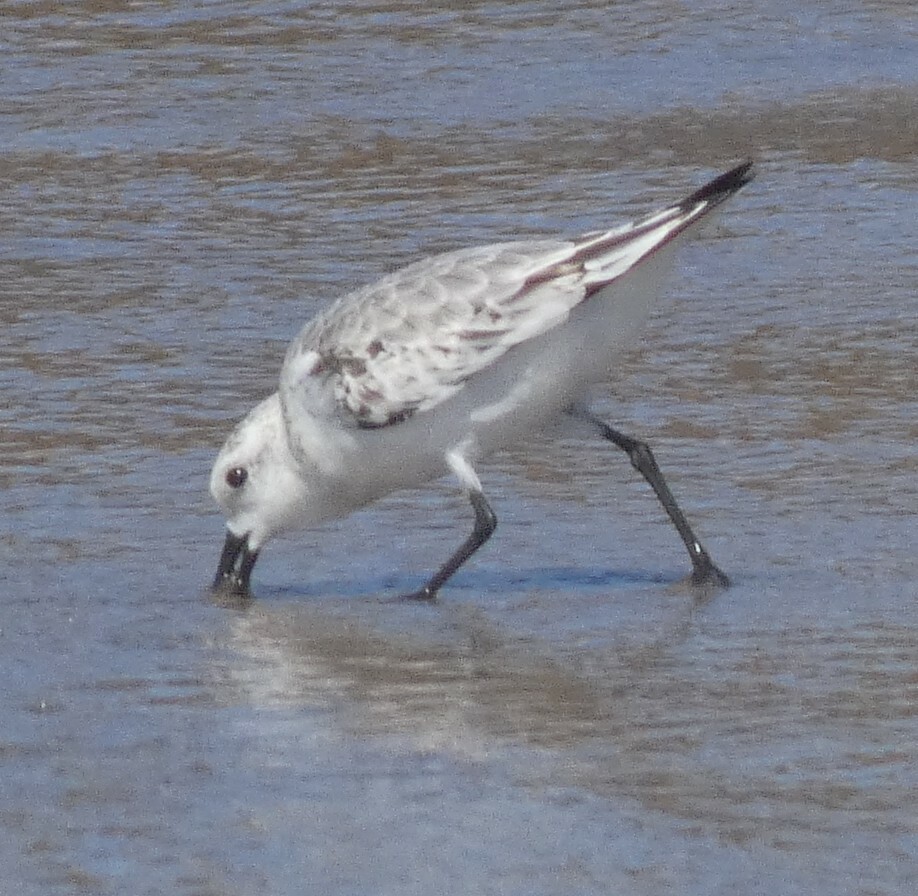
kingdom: Animalia
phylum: Chordata
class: Aves
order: Charadriiformes
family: Scolopacidae
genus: Calidris
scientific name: Calidris alba
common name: Sanderling
